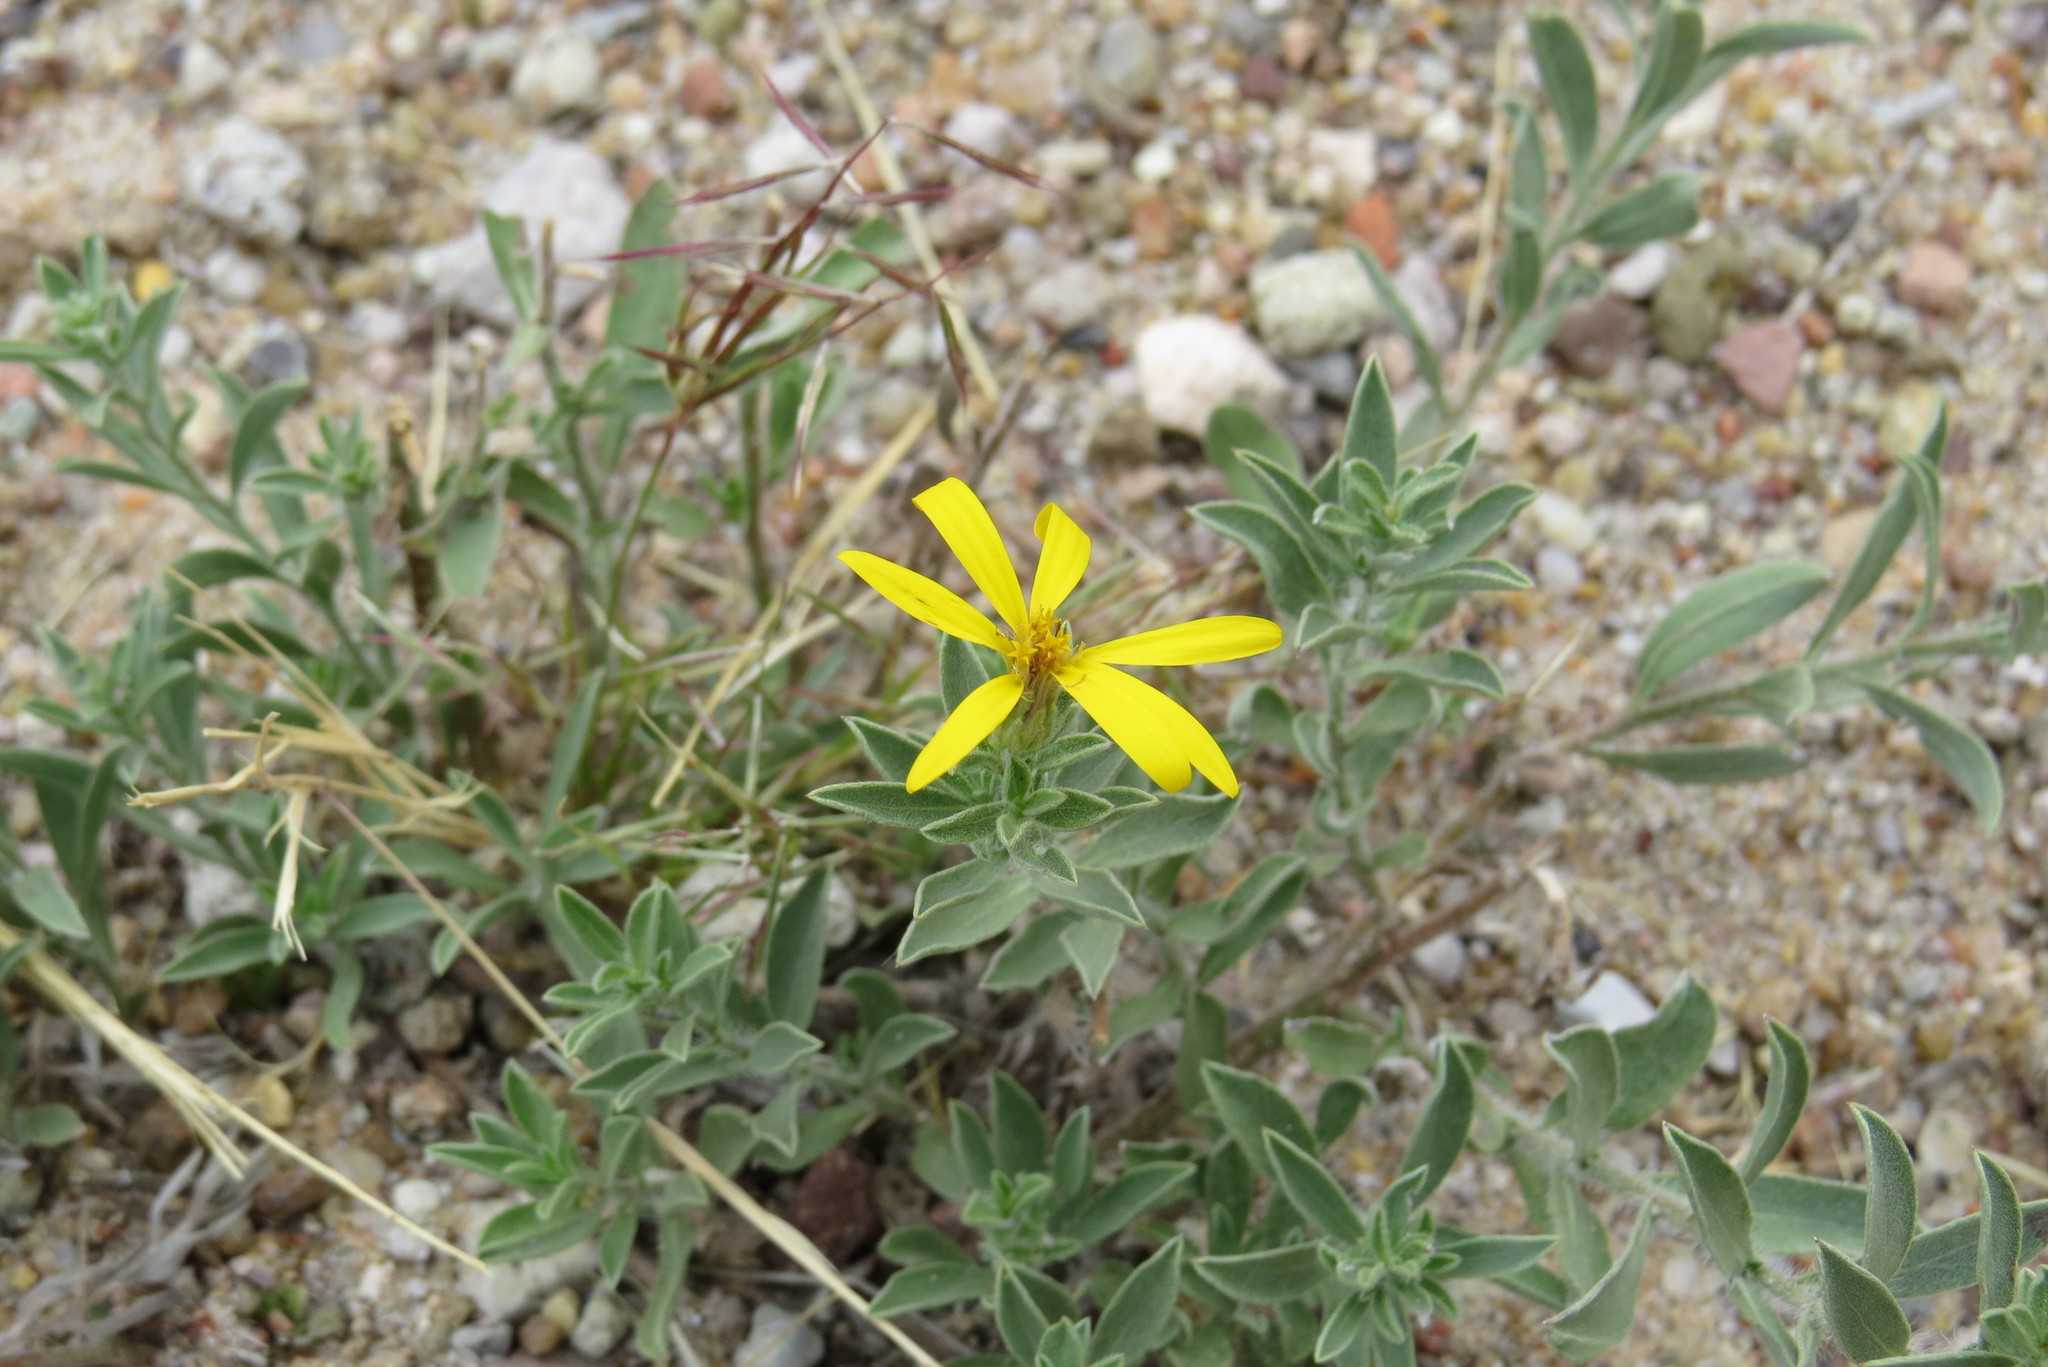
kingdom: Plantae
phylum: Tracheophyta
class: Magnoliopsida
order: Asterales
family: Asteraceae
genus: Heterotheca
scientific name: Heterotheca zionensis
